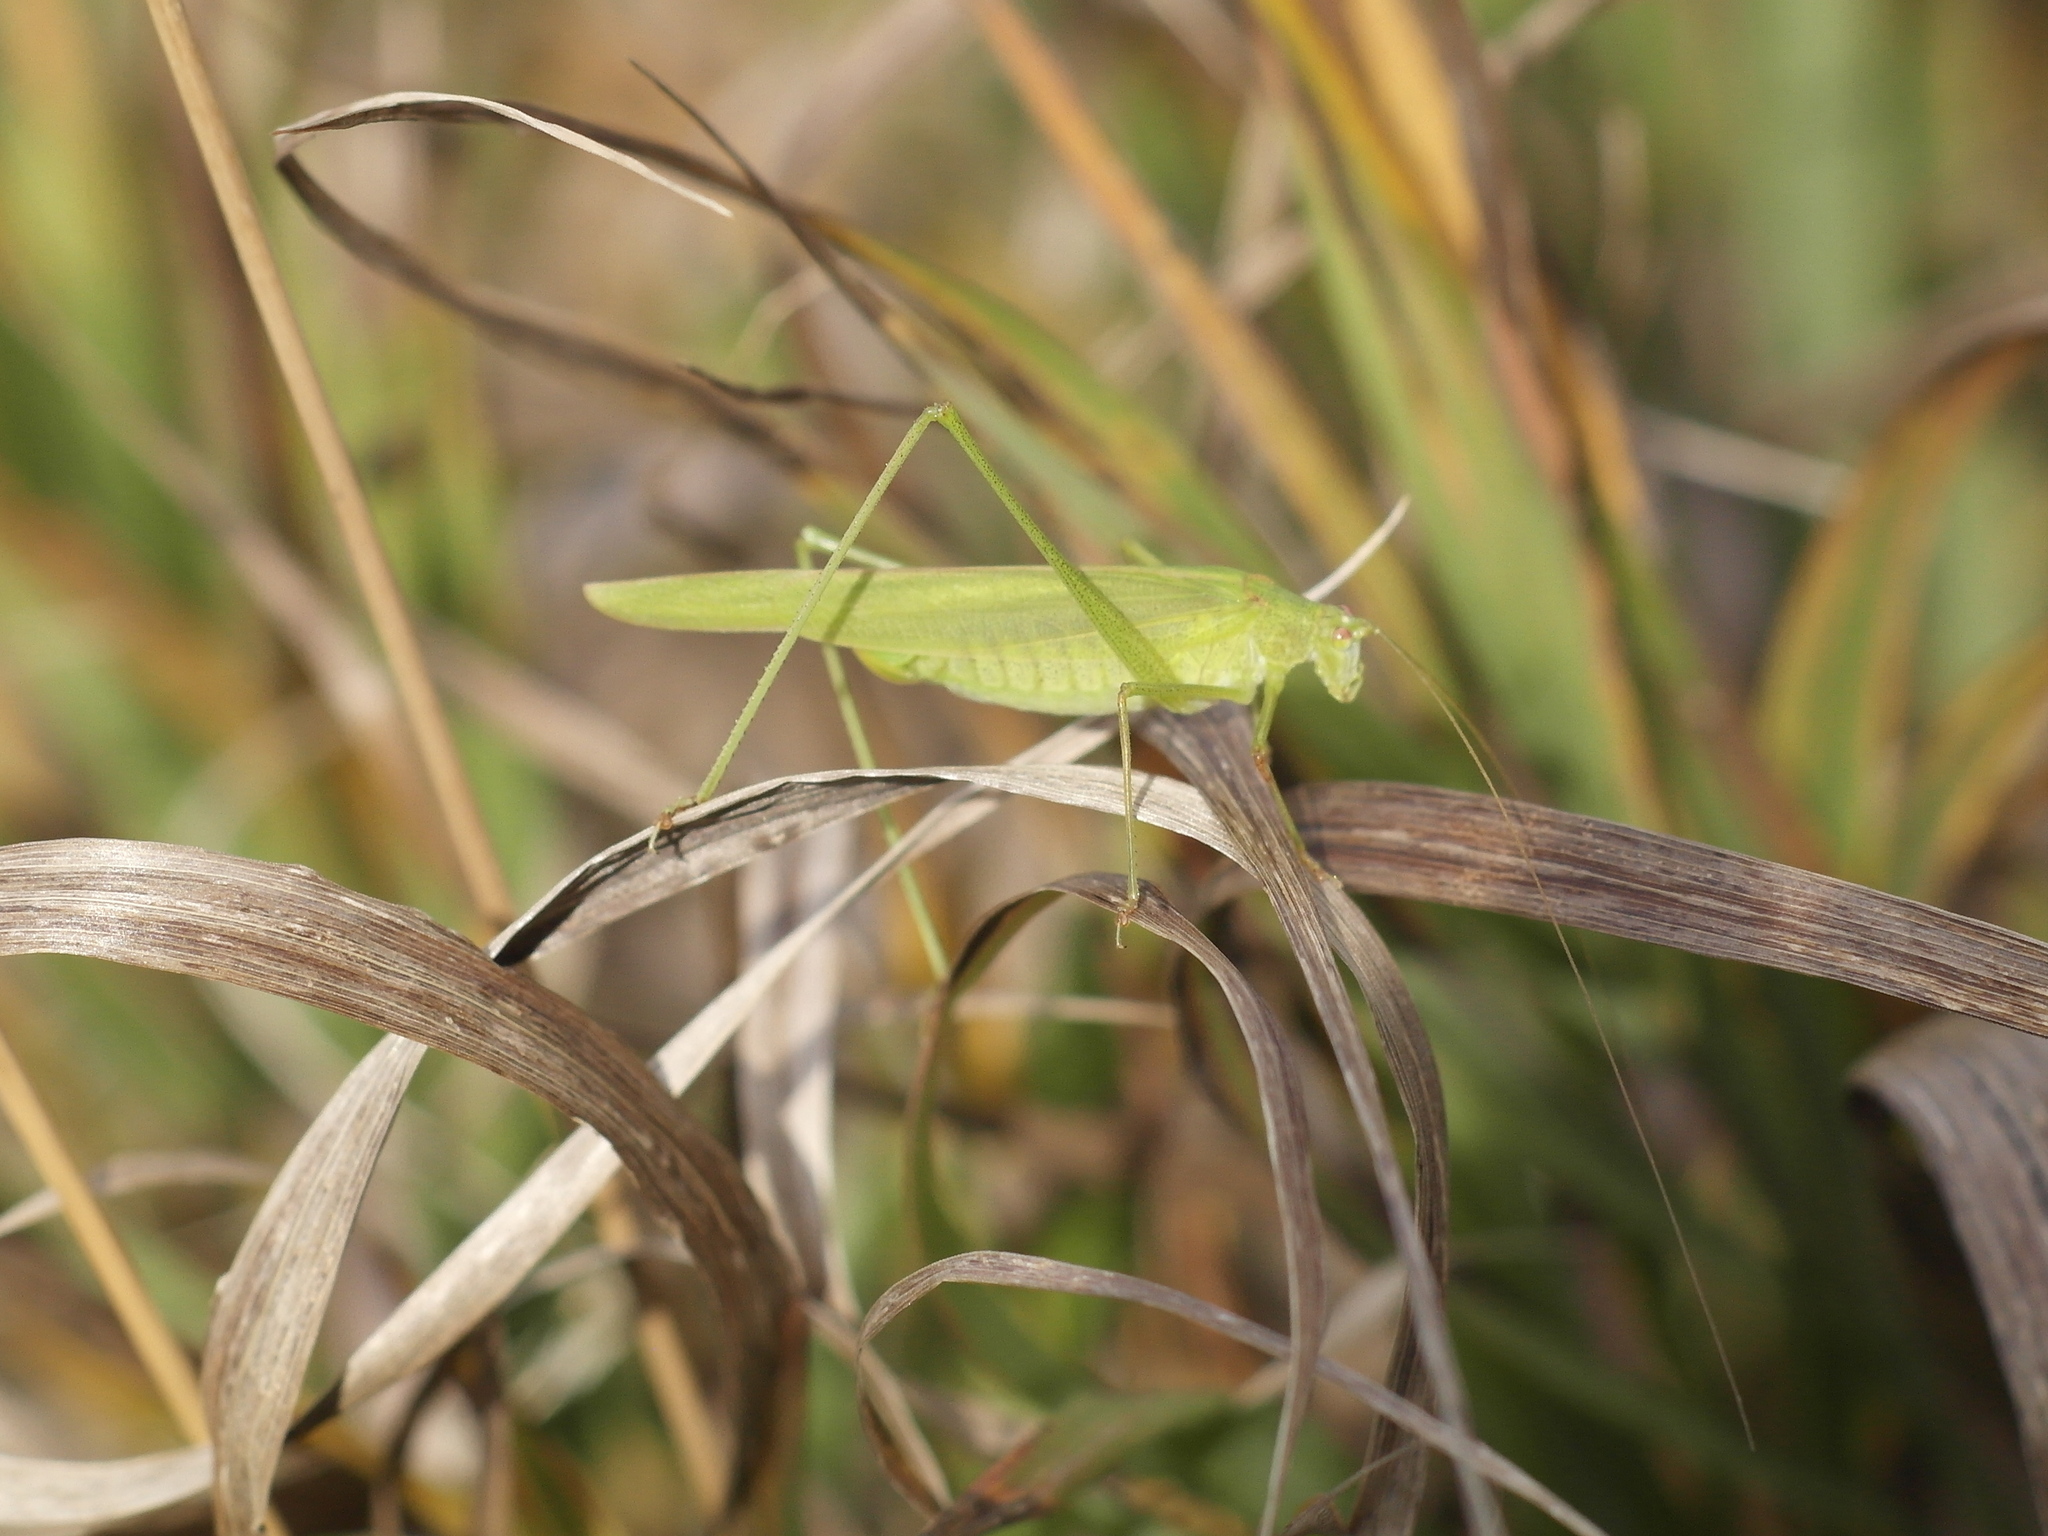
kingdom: Animalia
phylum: Arthropoda
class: Insecta
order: Orthoptera
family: Tettigoniidae
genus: Phaneroptera
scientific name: Phaneroptera falcata
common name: Sickle-bearing bush-cricket
